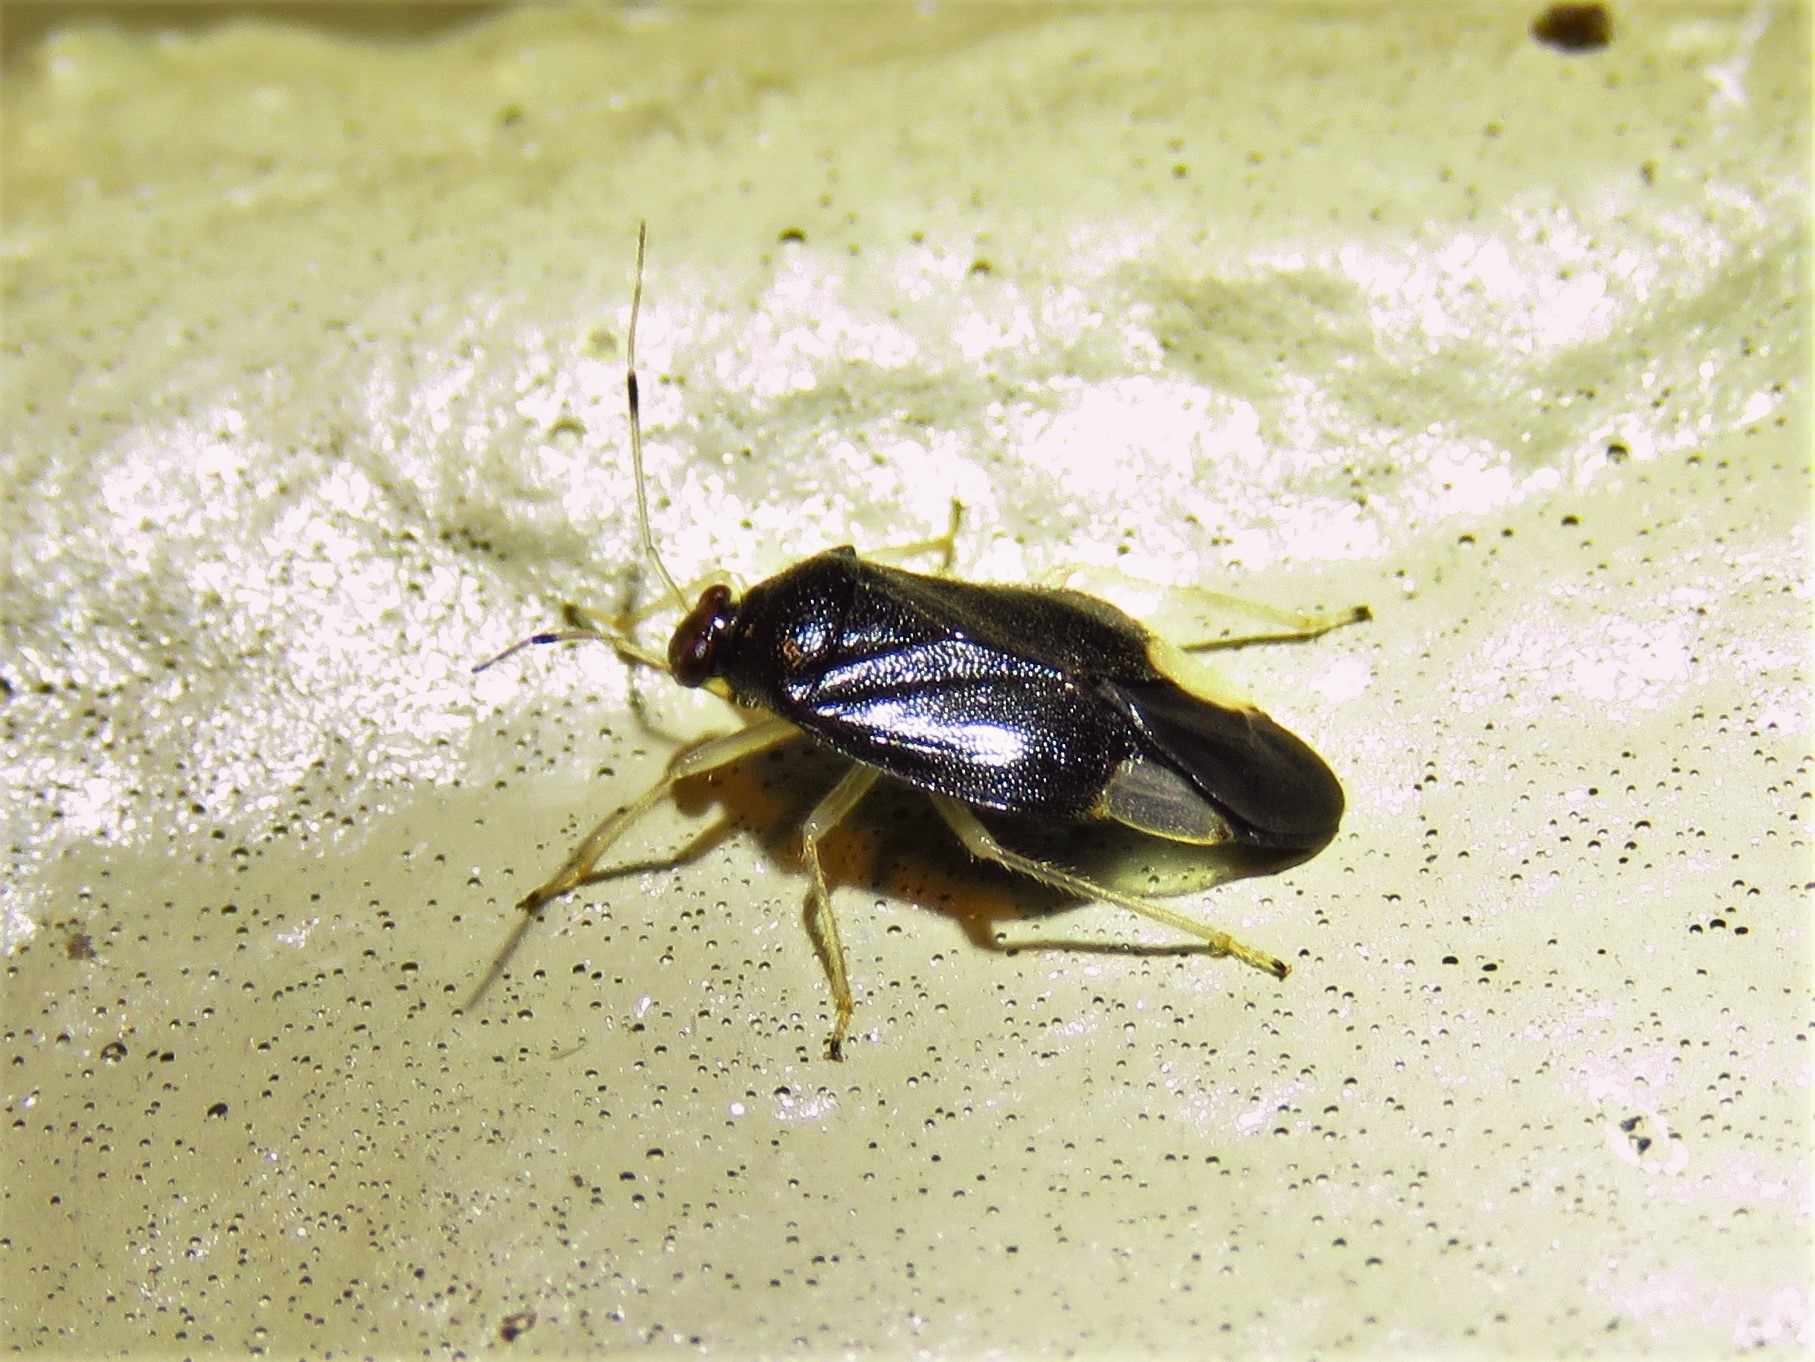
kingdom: Animalia
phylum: Arthropoda
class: Insecta
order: Hemiptera
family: Miridae
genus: Tropidosteptes
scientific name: Tropidosteptes tricolor
